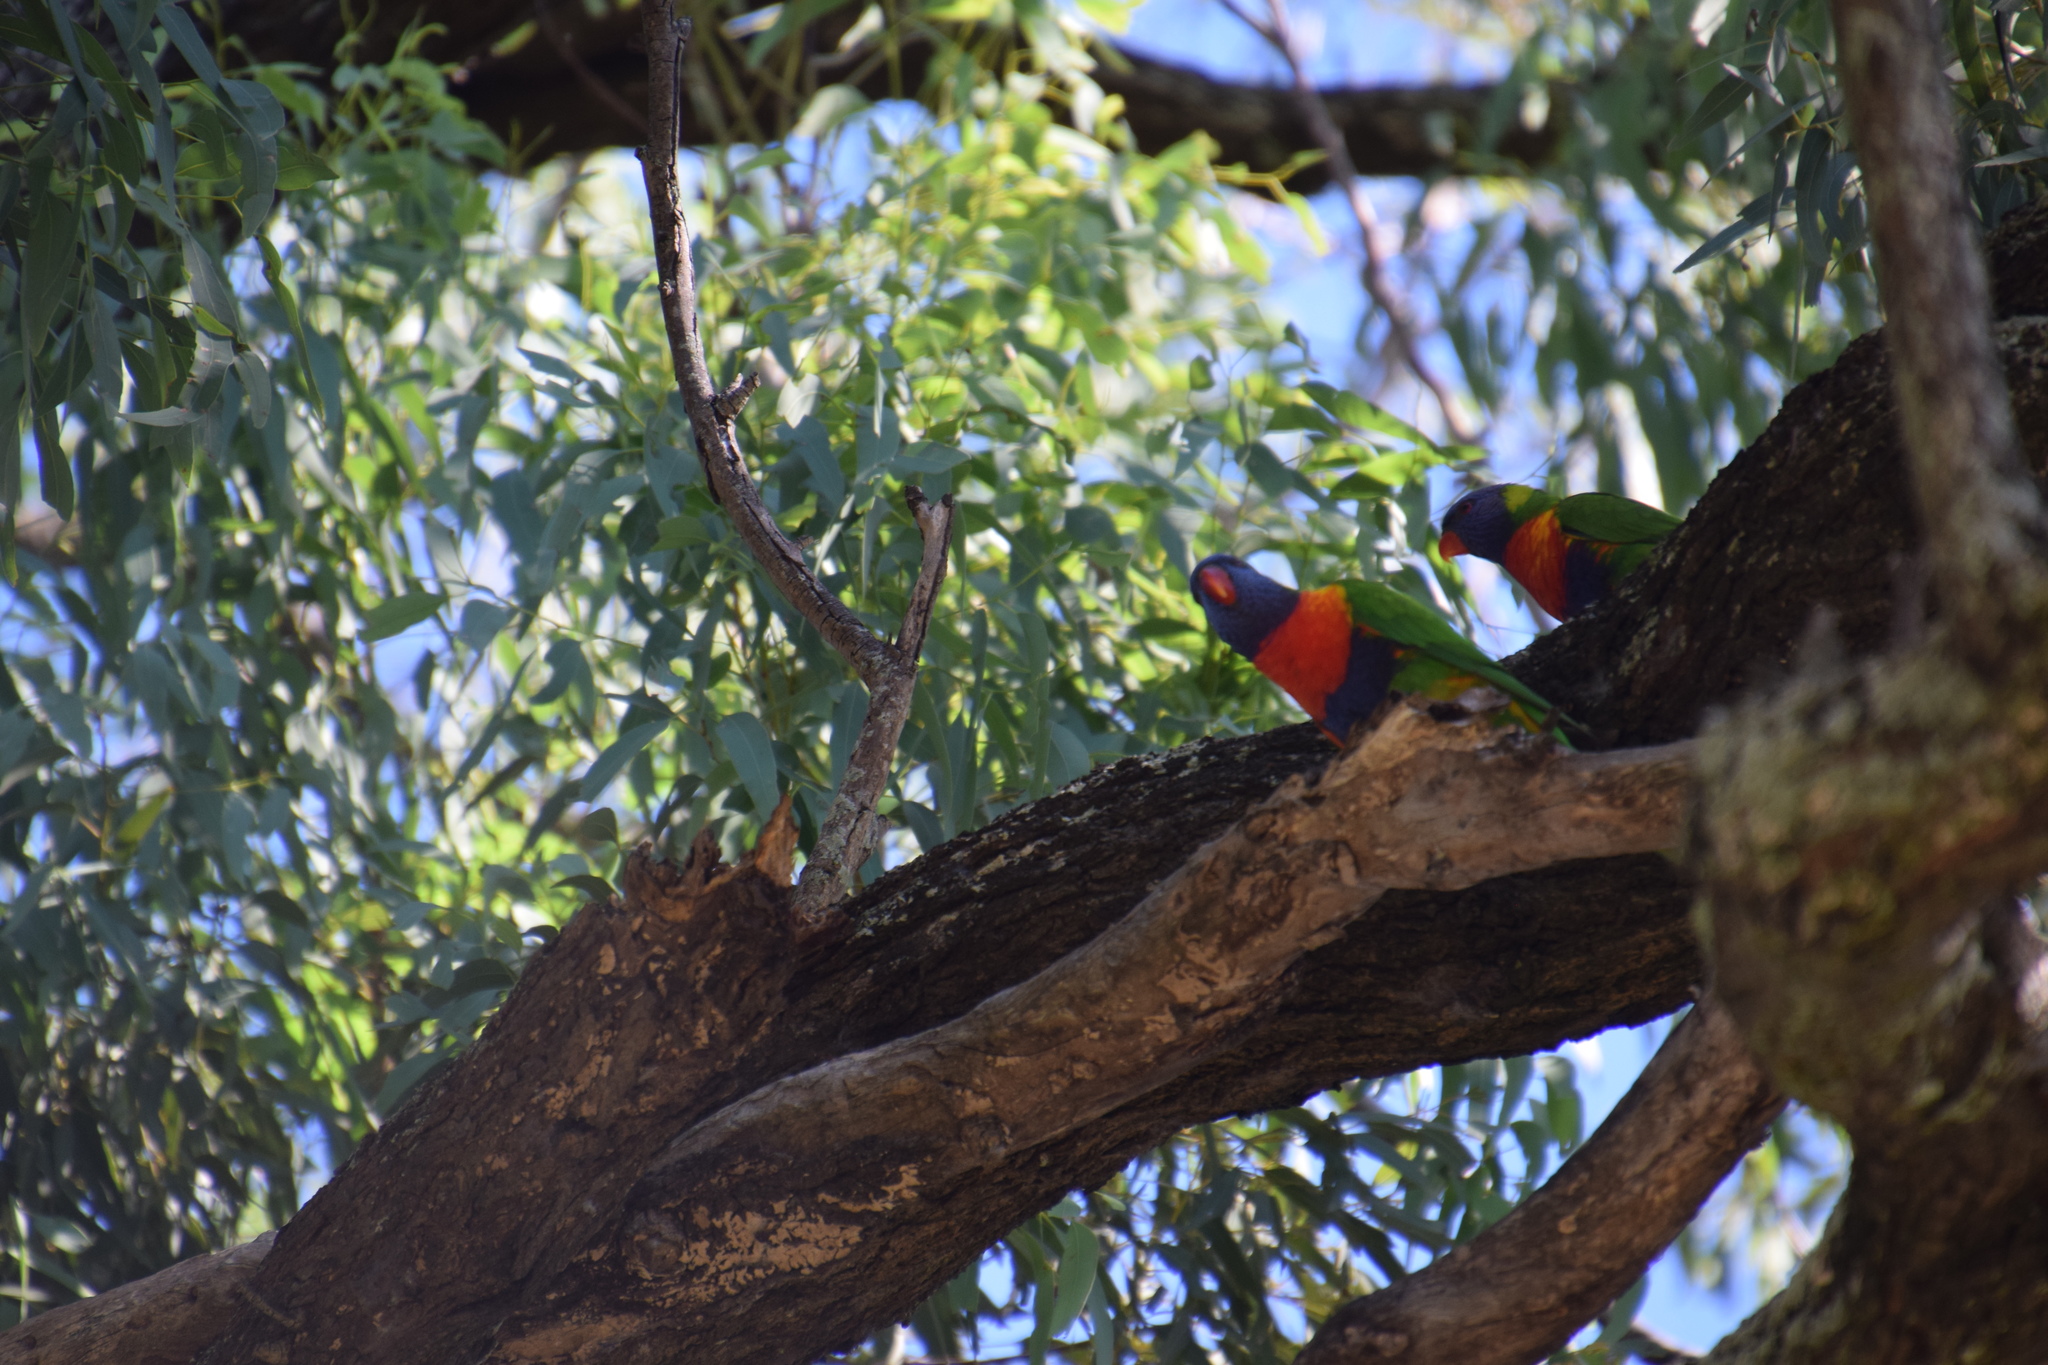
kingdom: Animalia
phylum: Chordata
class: Aves
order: Psittaciformes
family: Psittacidae
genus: Trichoglossus
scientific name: Trichoglossus haematodus
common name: Coconut lorikeet
